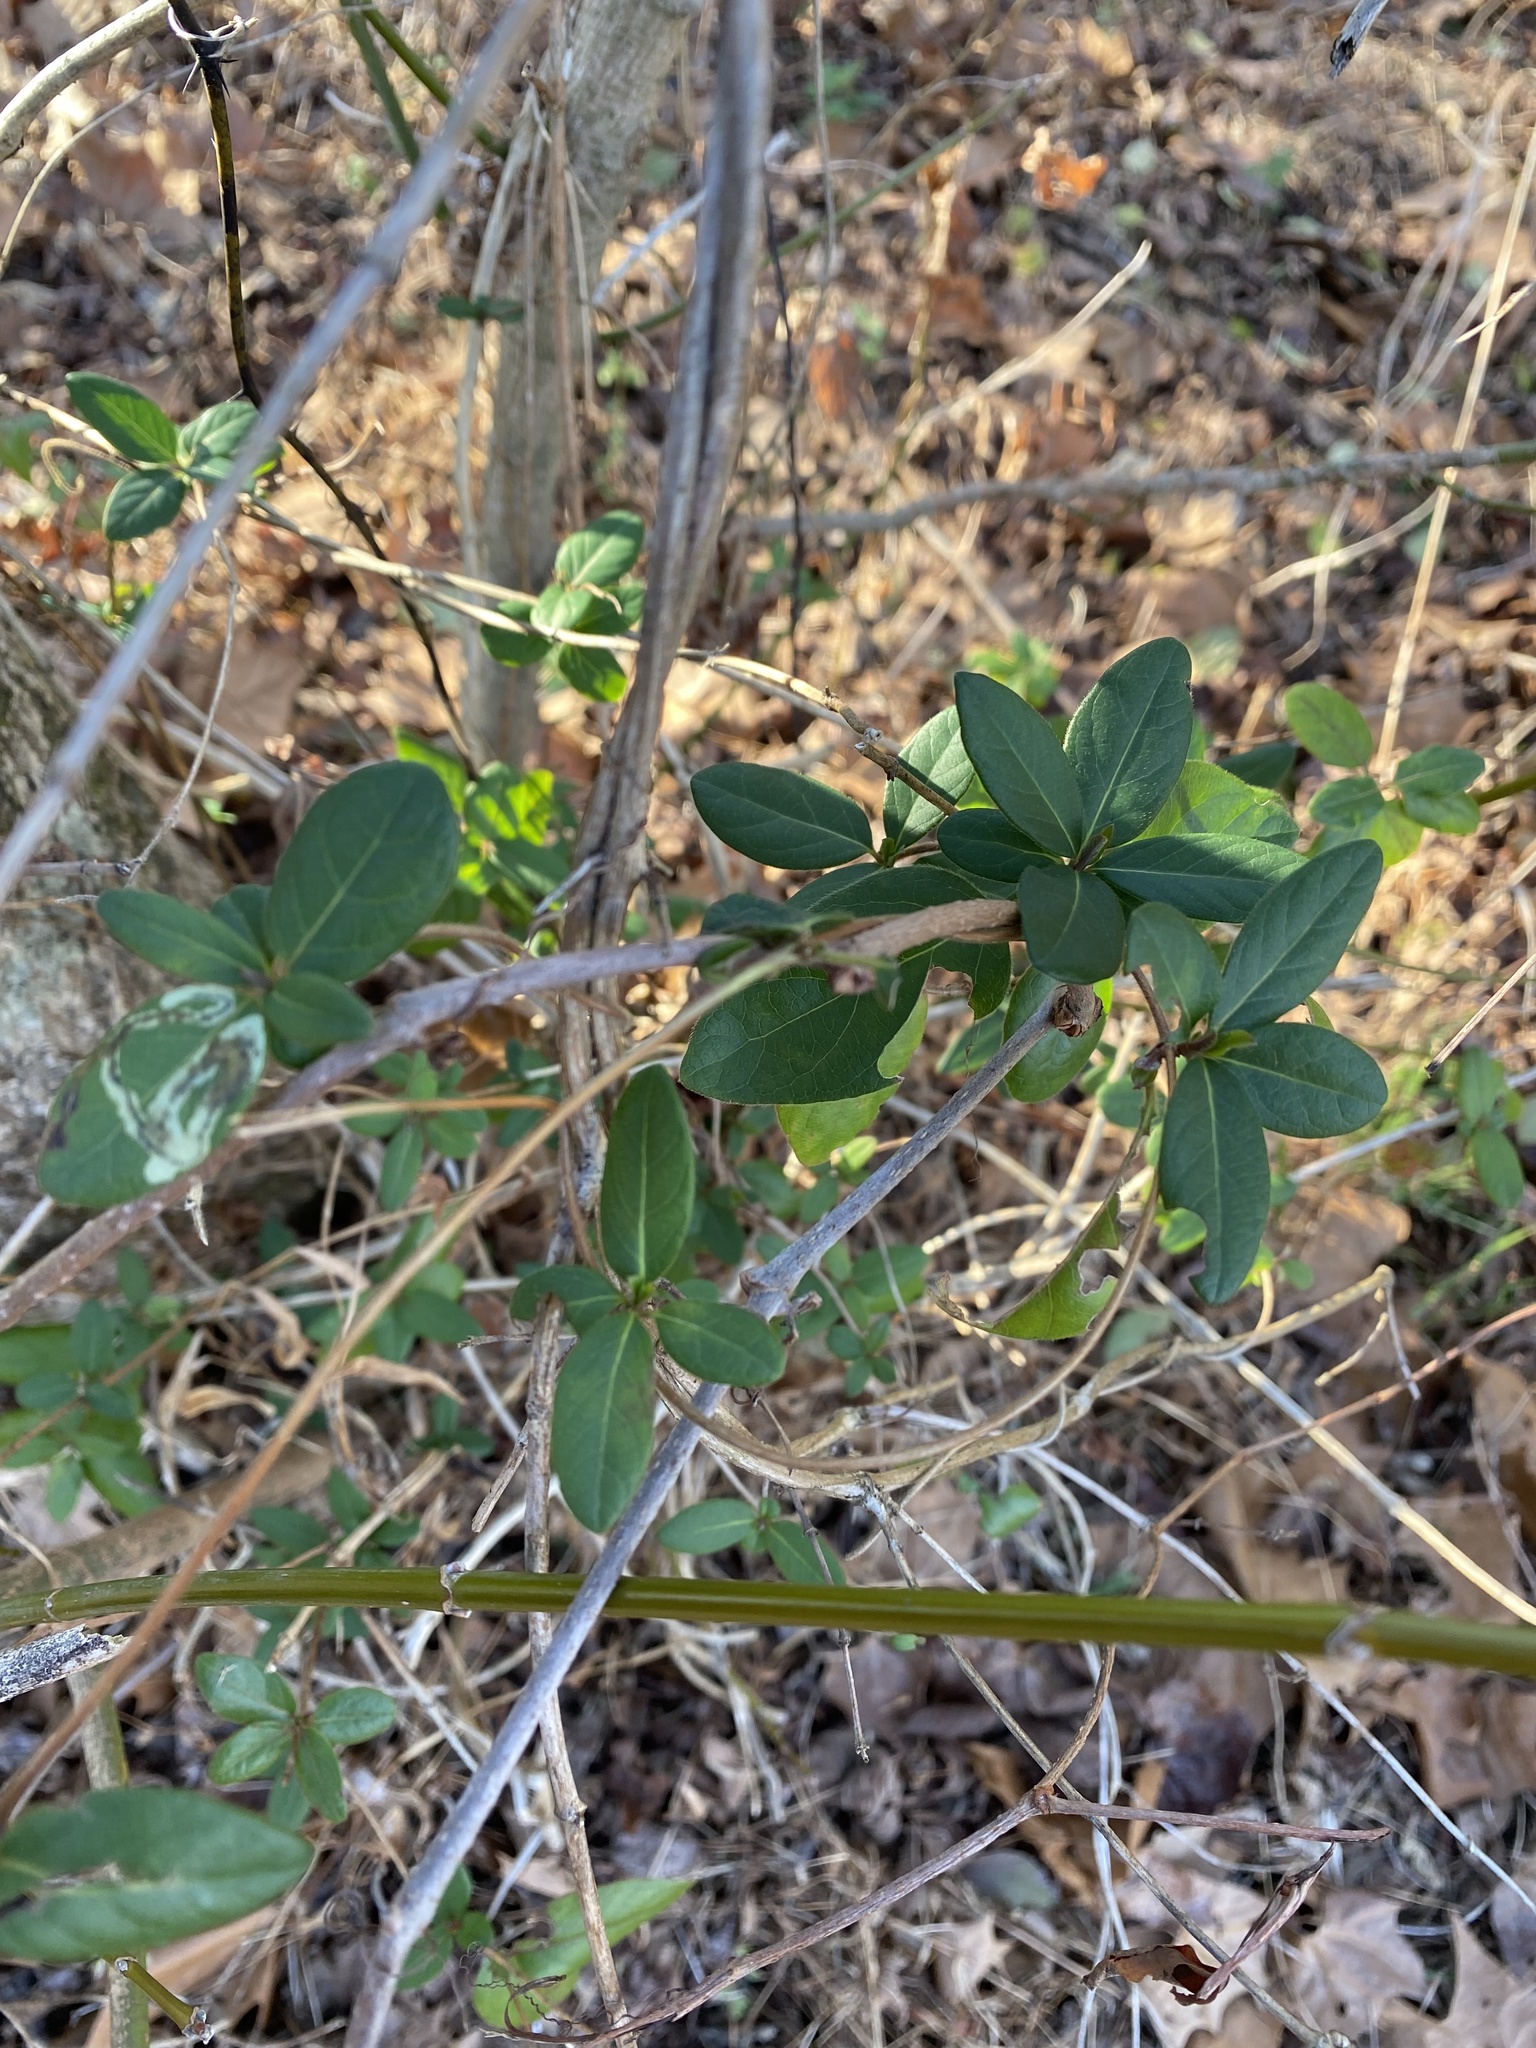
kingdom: Plantae
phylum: Tracheophyta
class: Magnoliopsida
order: Dipsacales
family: Caprifoliaceae
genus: Lonicera
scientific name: Lonicera japonica
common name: Japanese honeysuckle
